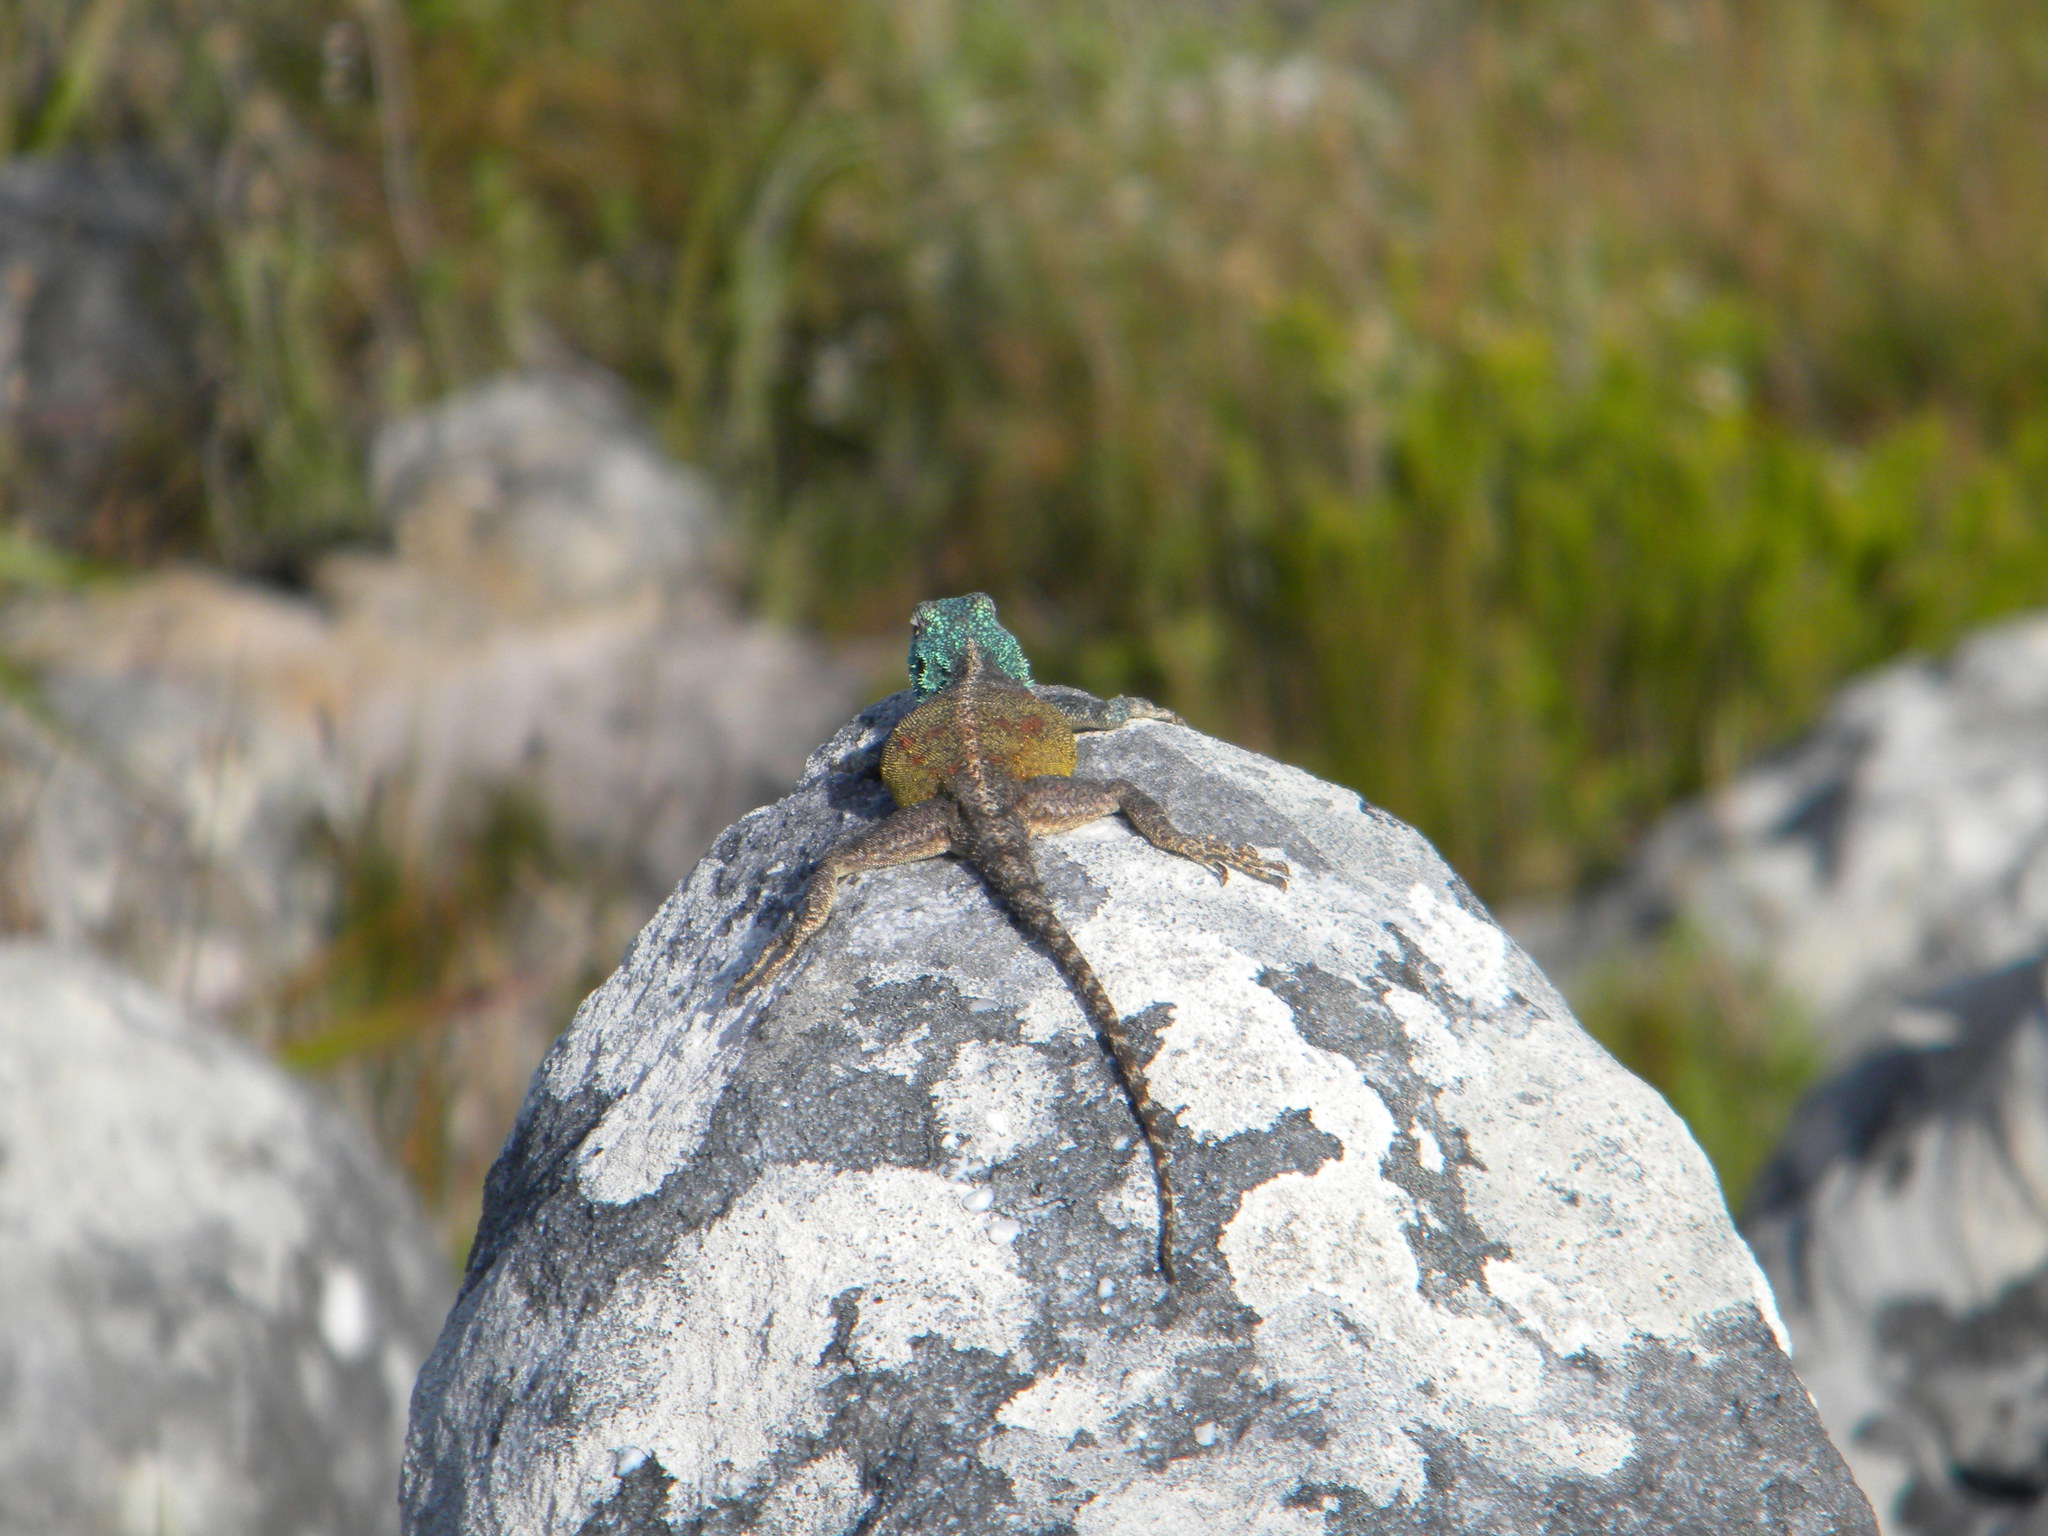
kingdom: Animalia
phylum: Chordata
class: Squamata
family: Agamidae
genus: Agama
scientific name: Agama atra
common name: Southern african rock agama
